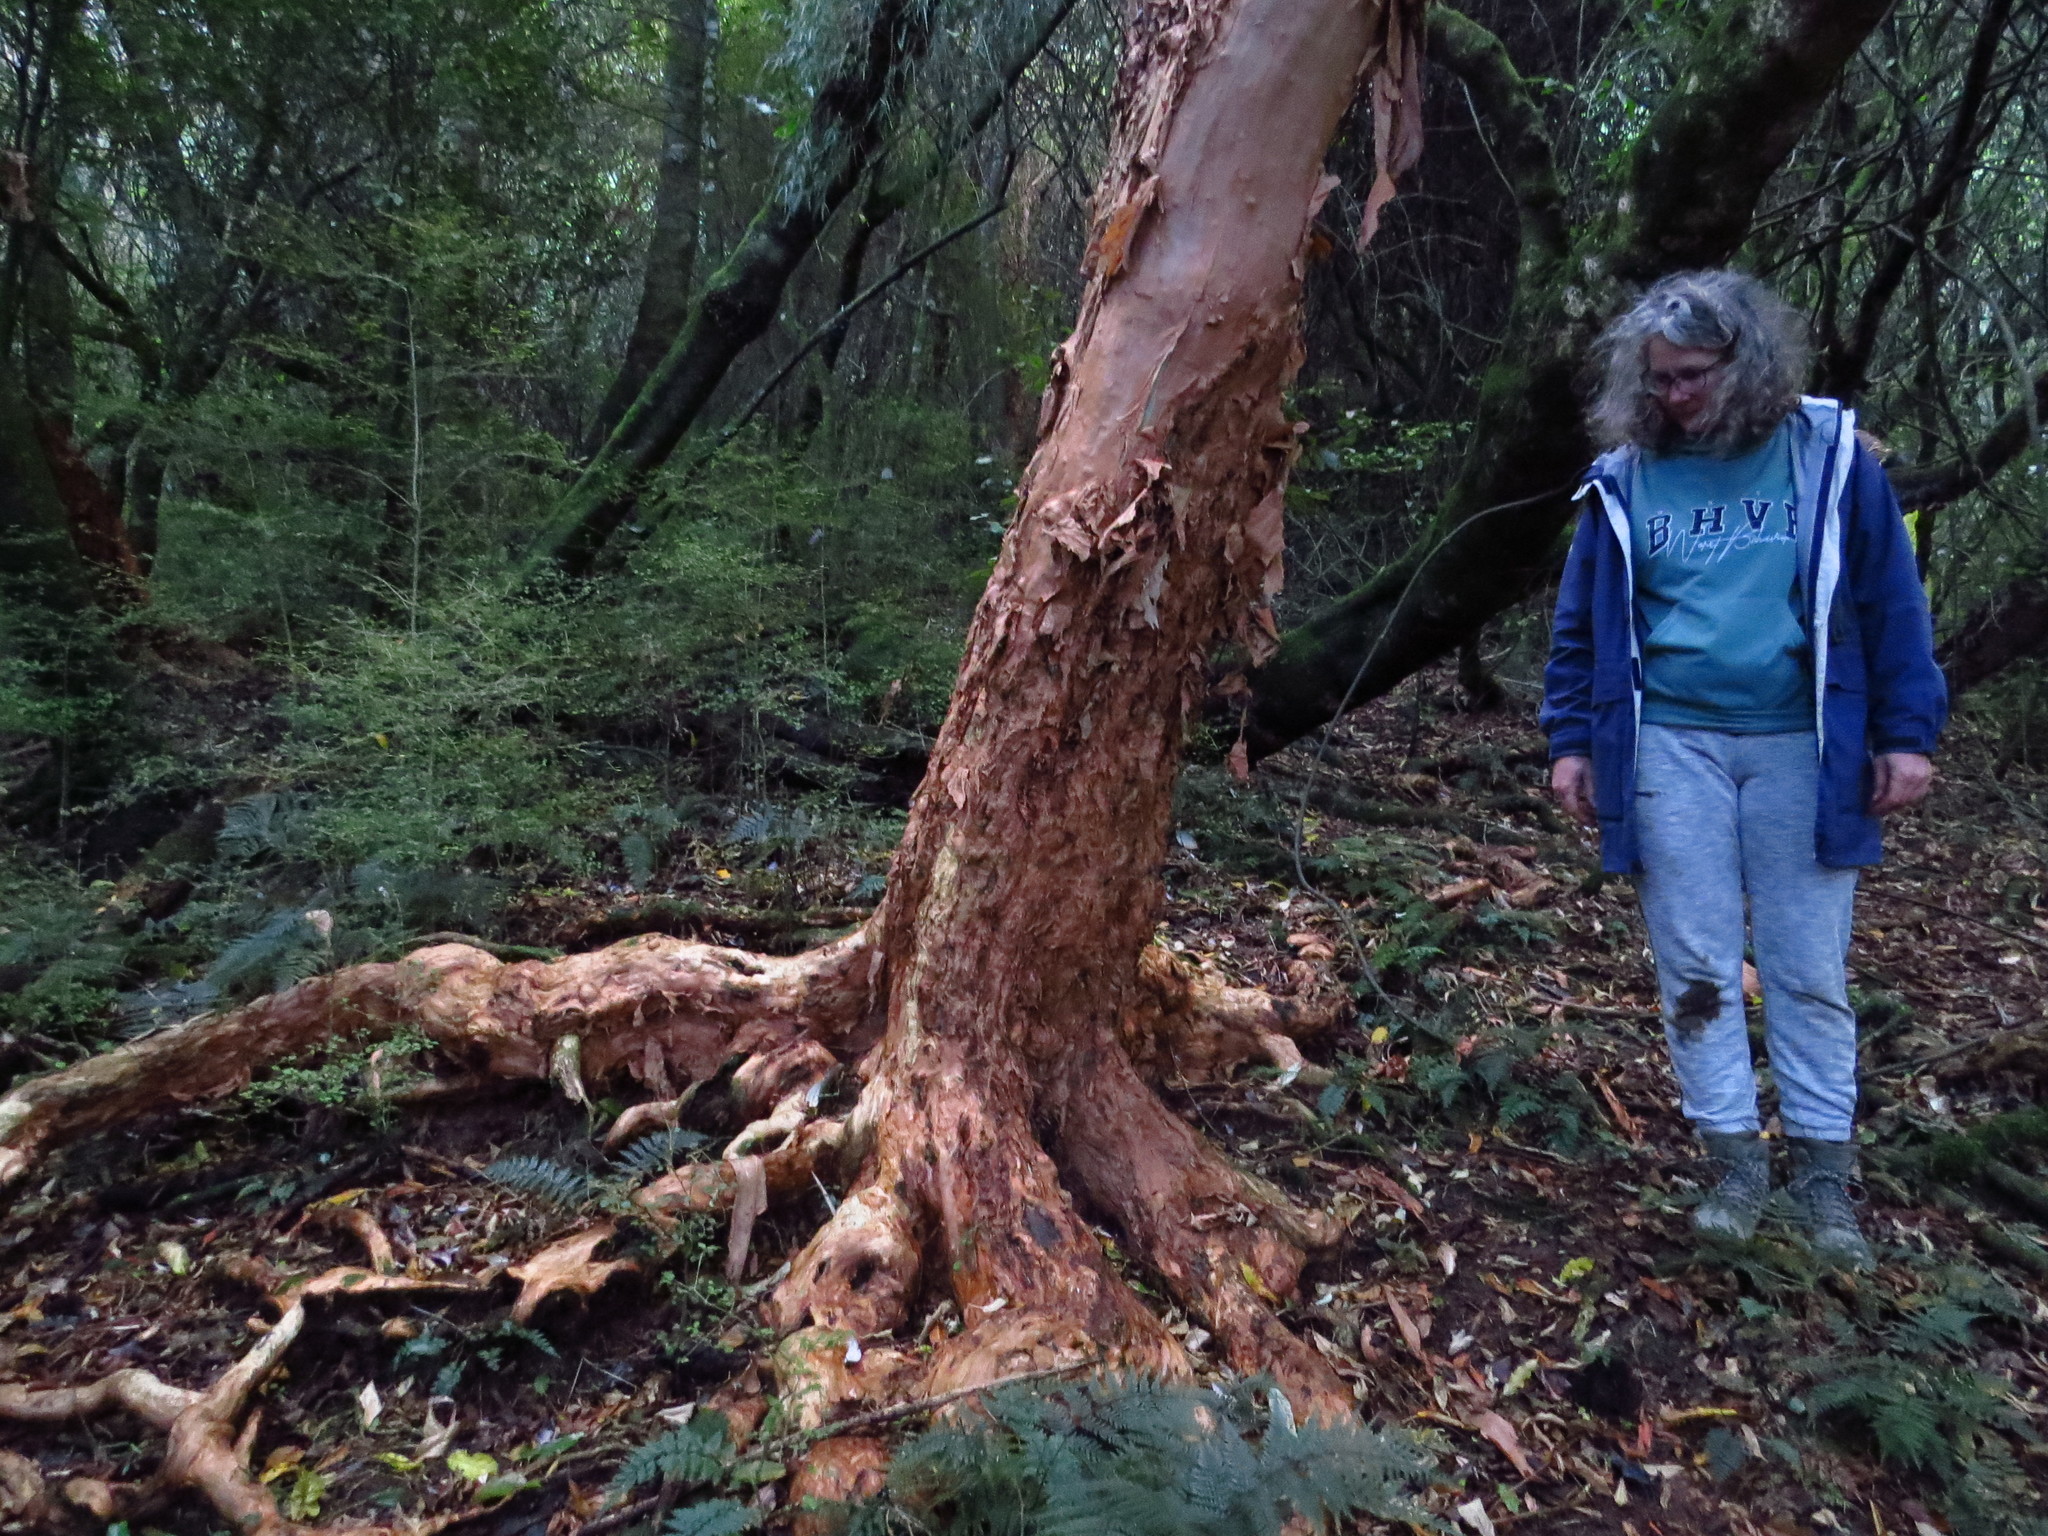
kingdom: Plantae
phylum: Tracheophyta
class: Magnoliopsida
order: Myrtales
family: Onagraceae
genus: Fuchsia
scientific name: Fuchsia excorticata
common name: Tree fuchsia
